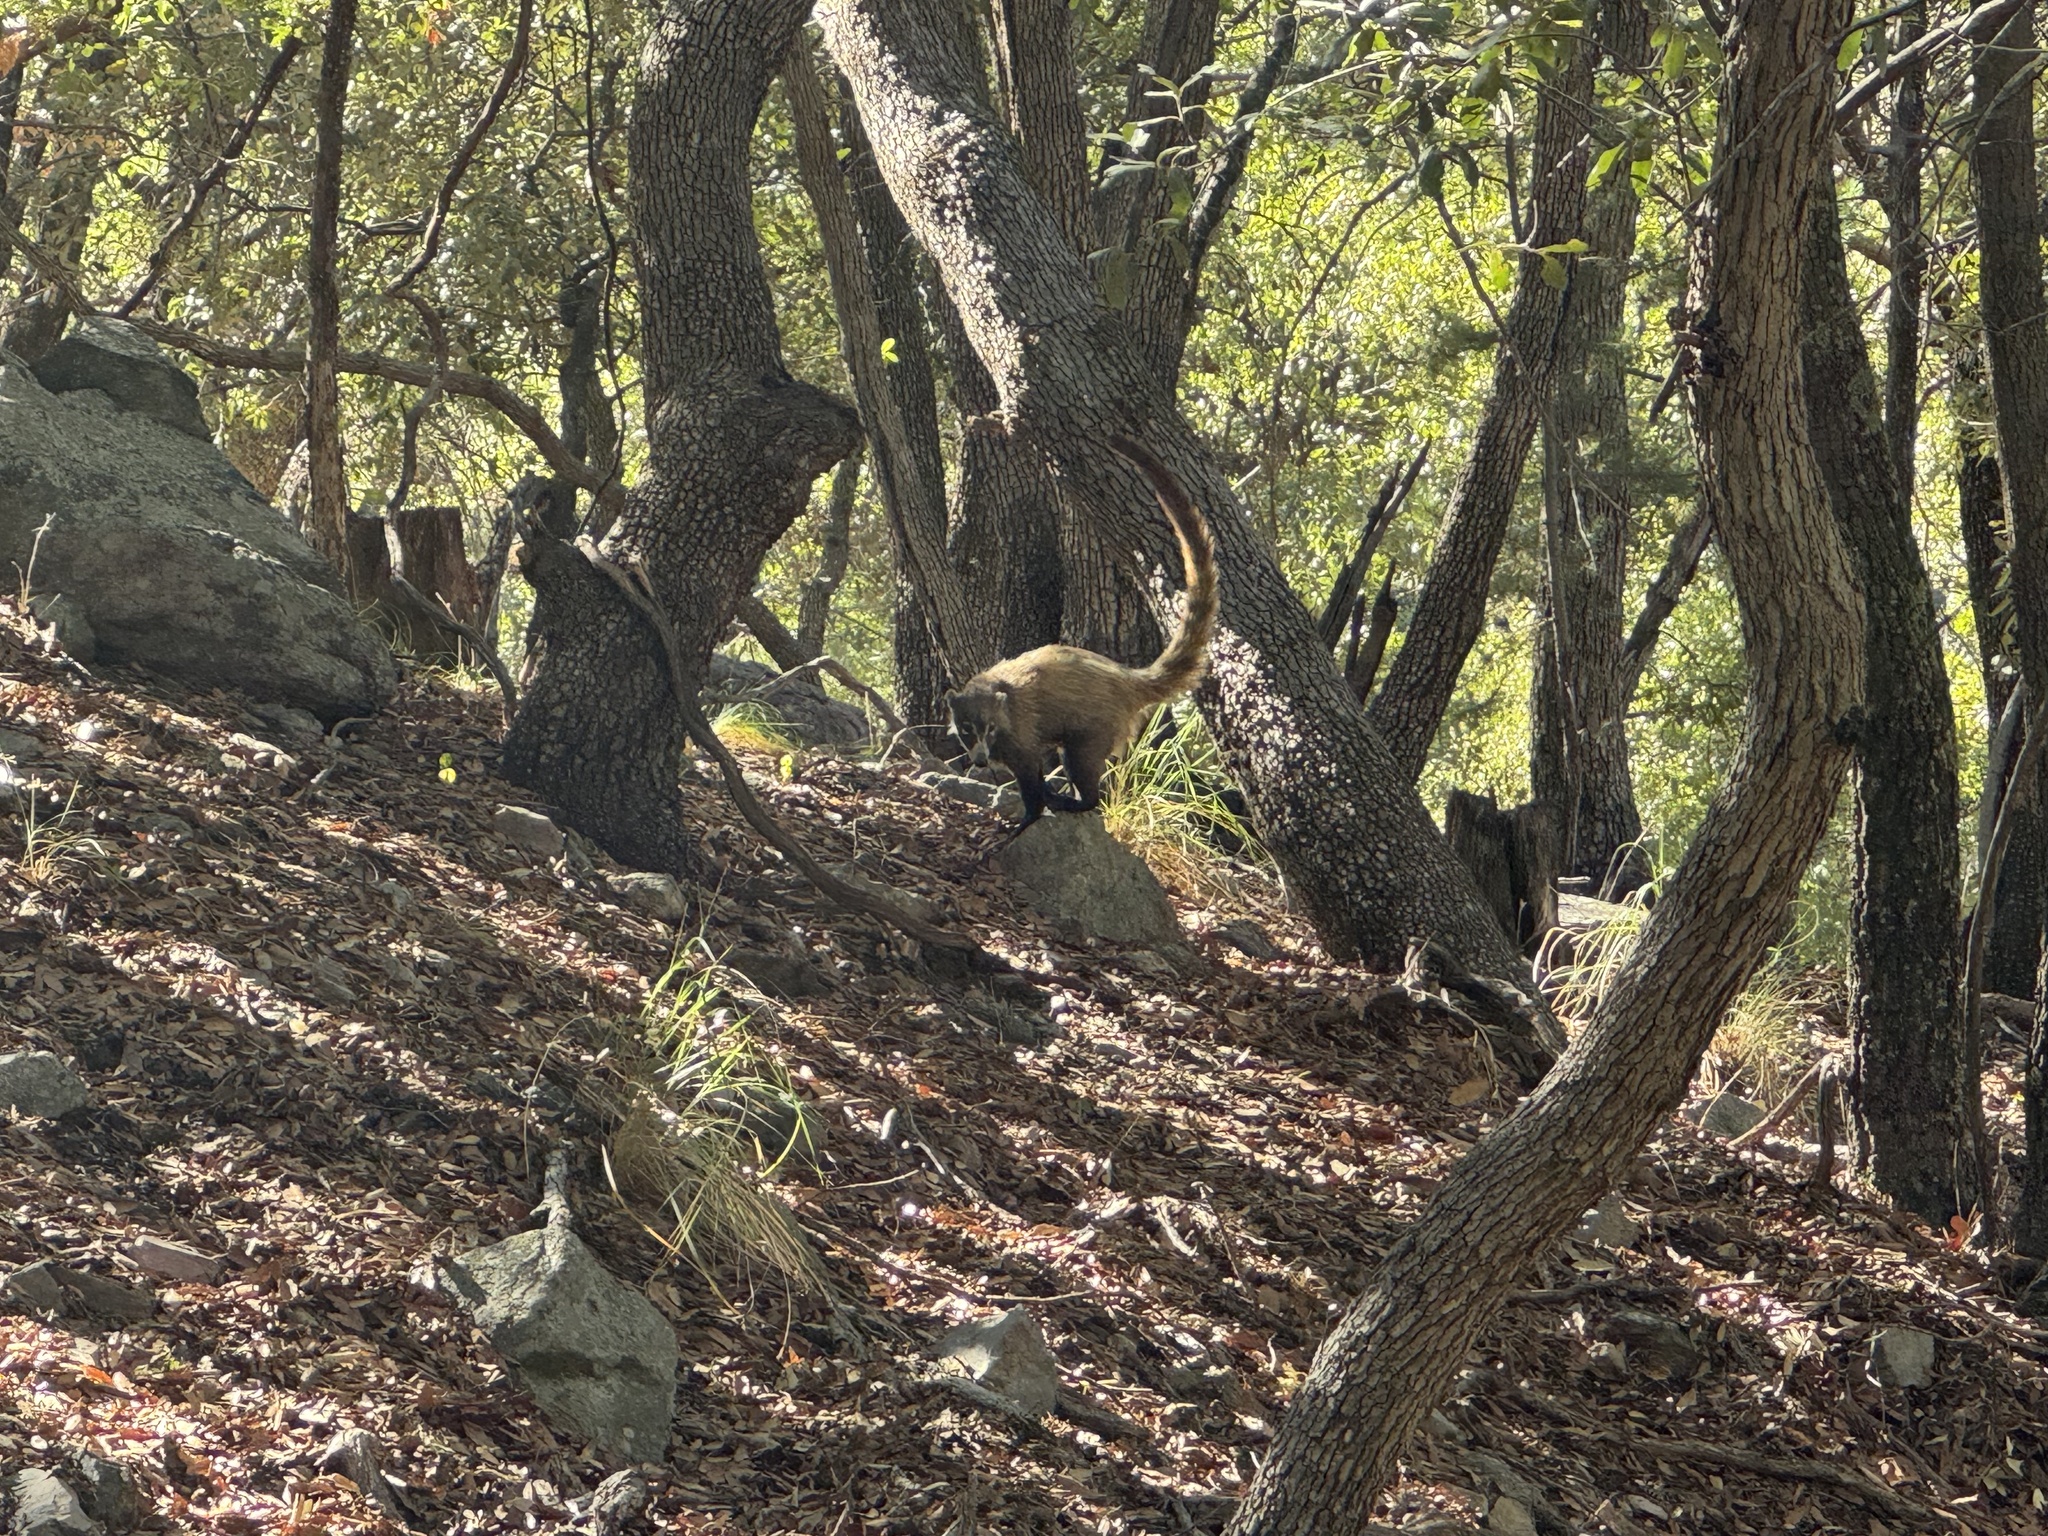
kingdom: Animalia
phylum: Chordata
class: Mammalia
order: Carnivora
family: Procyonidae
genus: Nasua
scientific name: Nasua narica
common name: White-nosed coati
